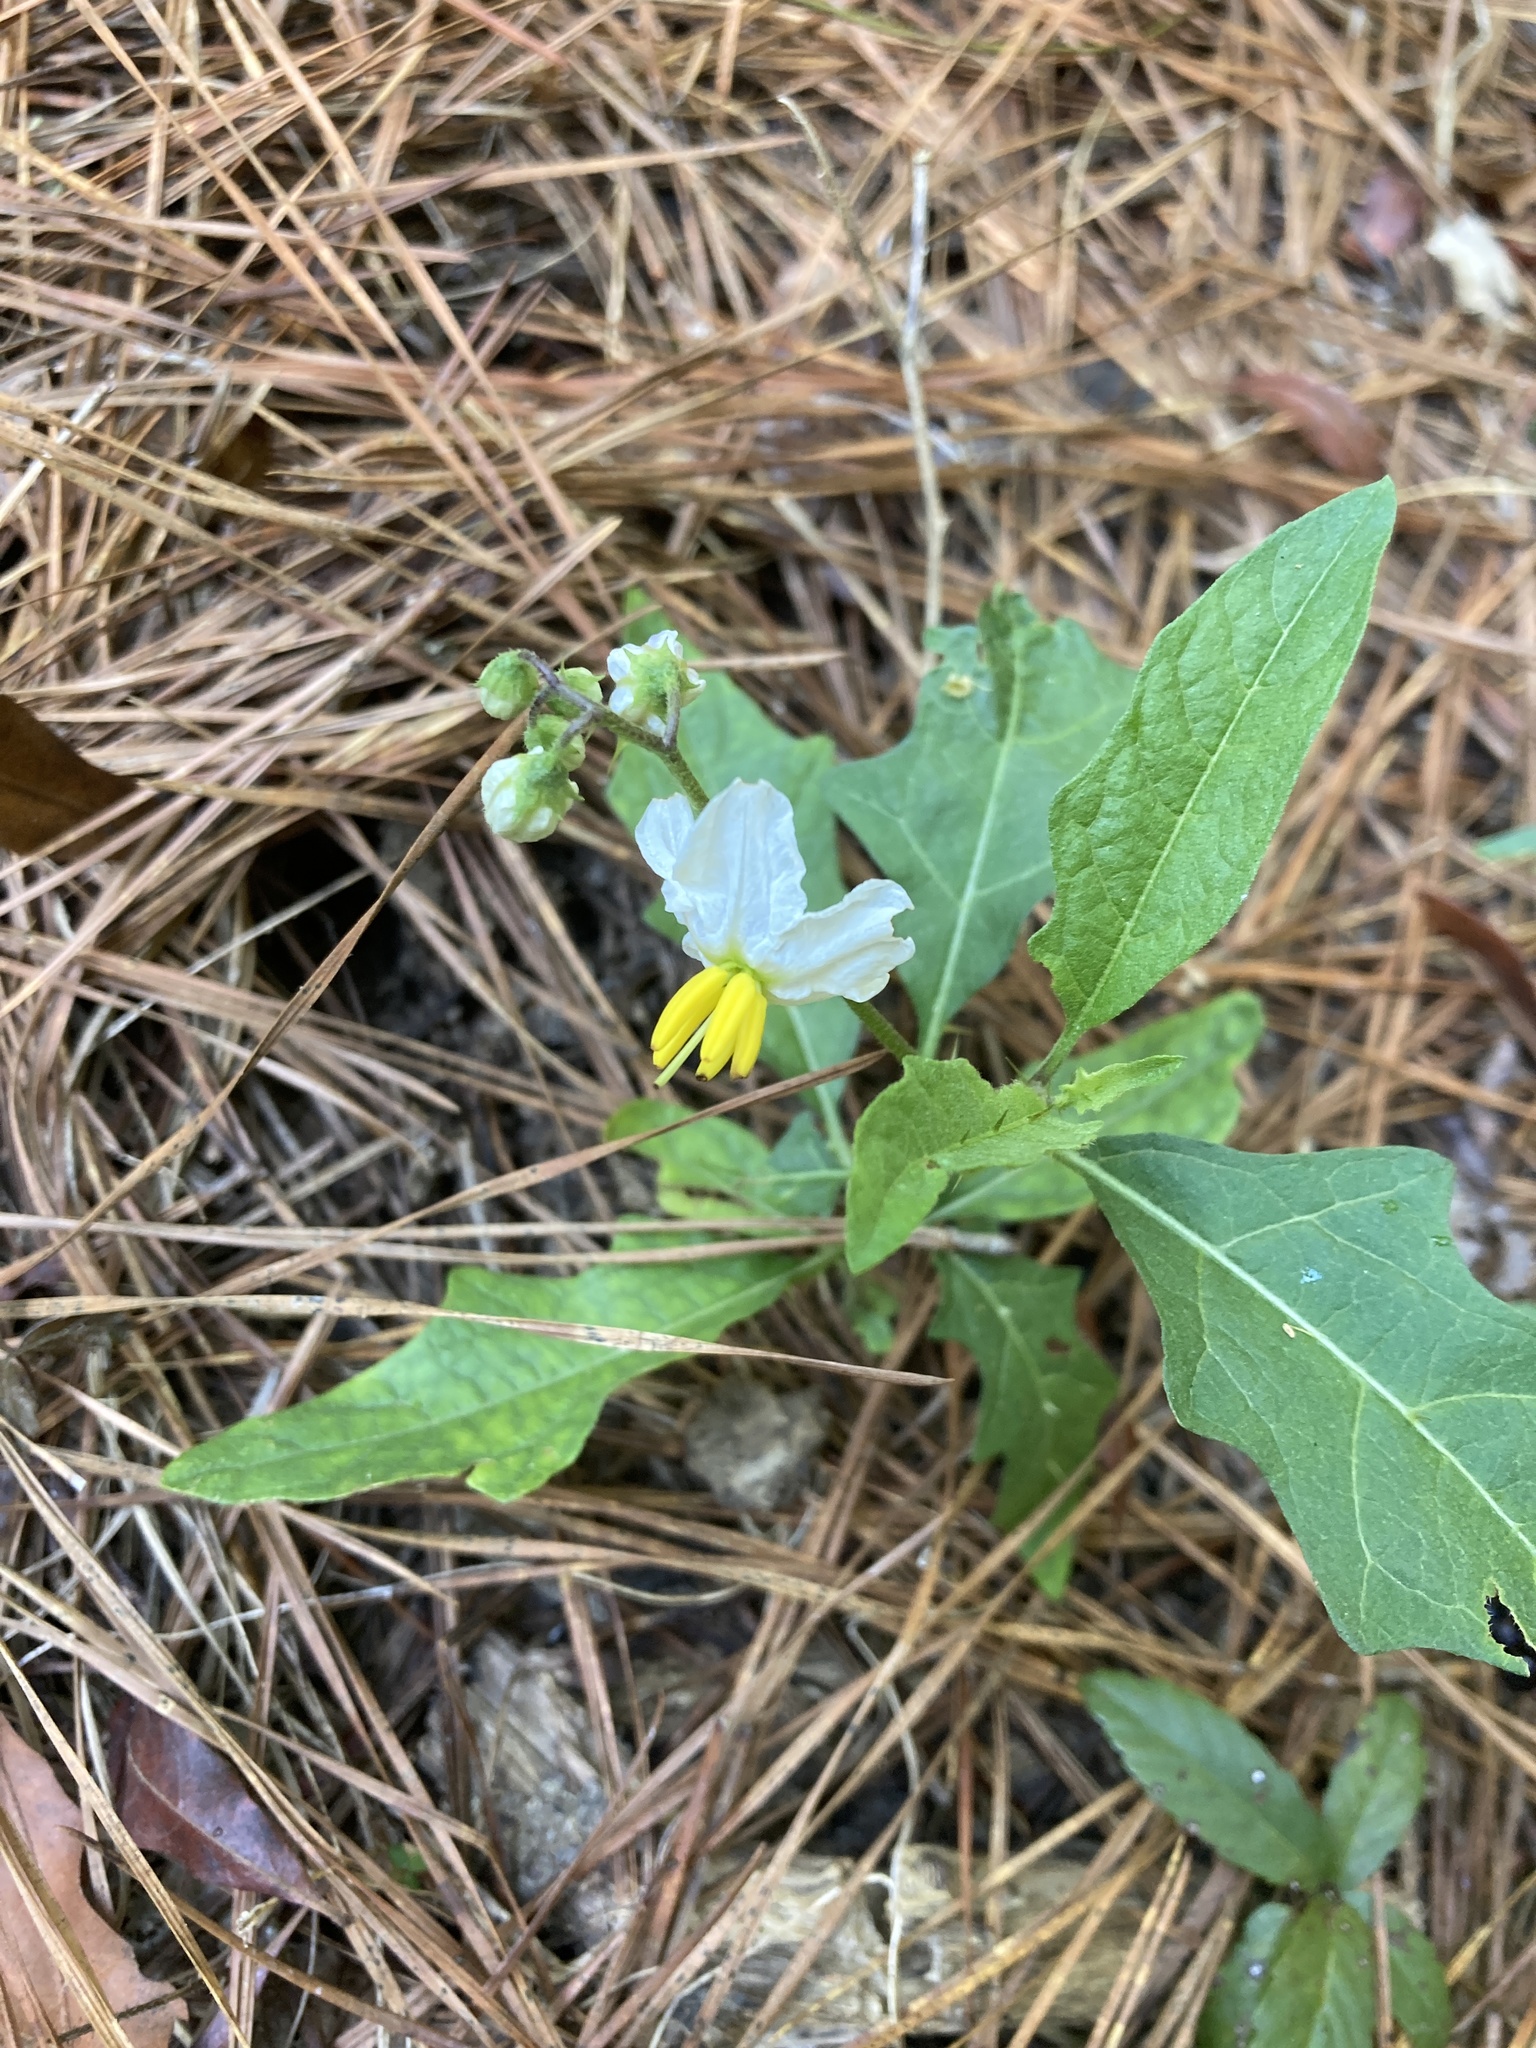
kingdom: Plantae
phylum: Tracheophyta
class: Magnoliopsida
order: Solanales
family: Solanaceae
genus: Solanum
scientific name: Solanum carolinense
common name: Horse-nettle
